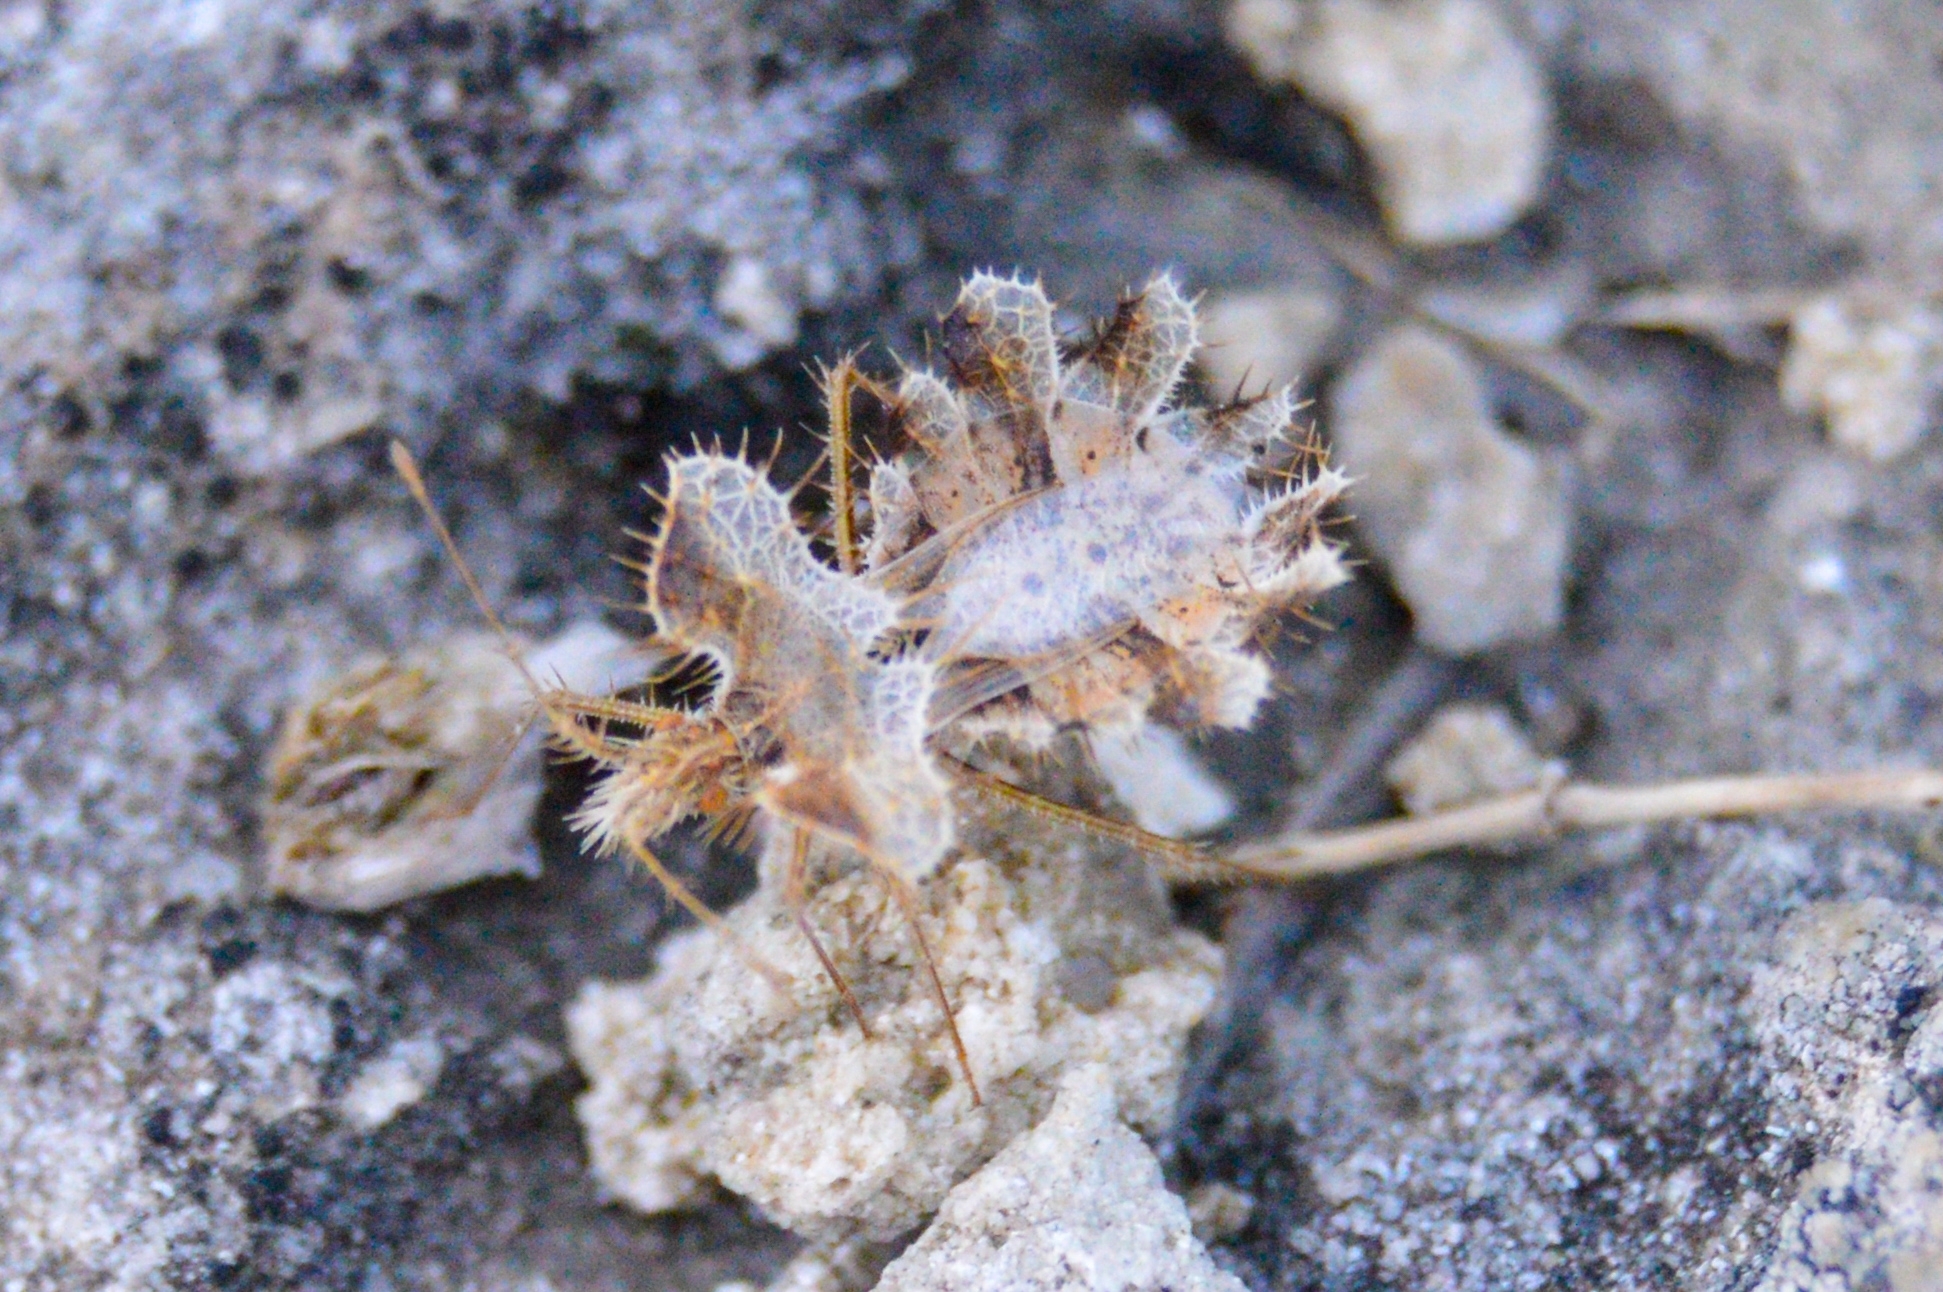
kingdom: Animalia
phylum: Arthropoda
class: Insecta
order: Hemiptera
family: Coreidae
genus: Phyllomorpha
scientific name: Phyllomorpha laciniata
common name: Golden egg bug
